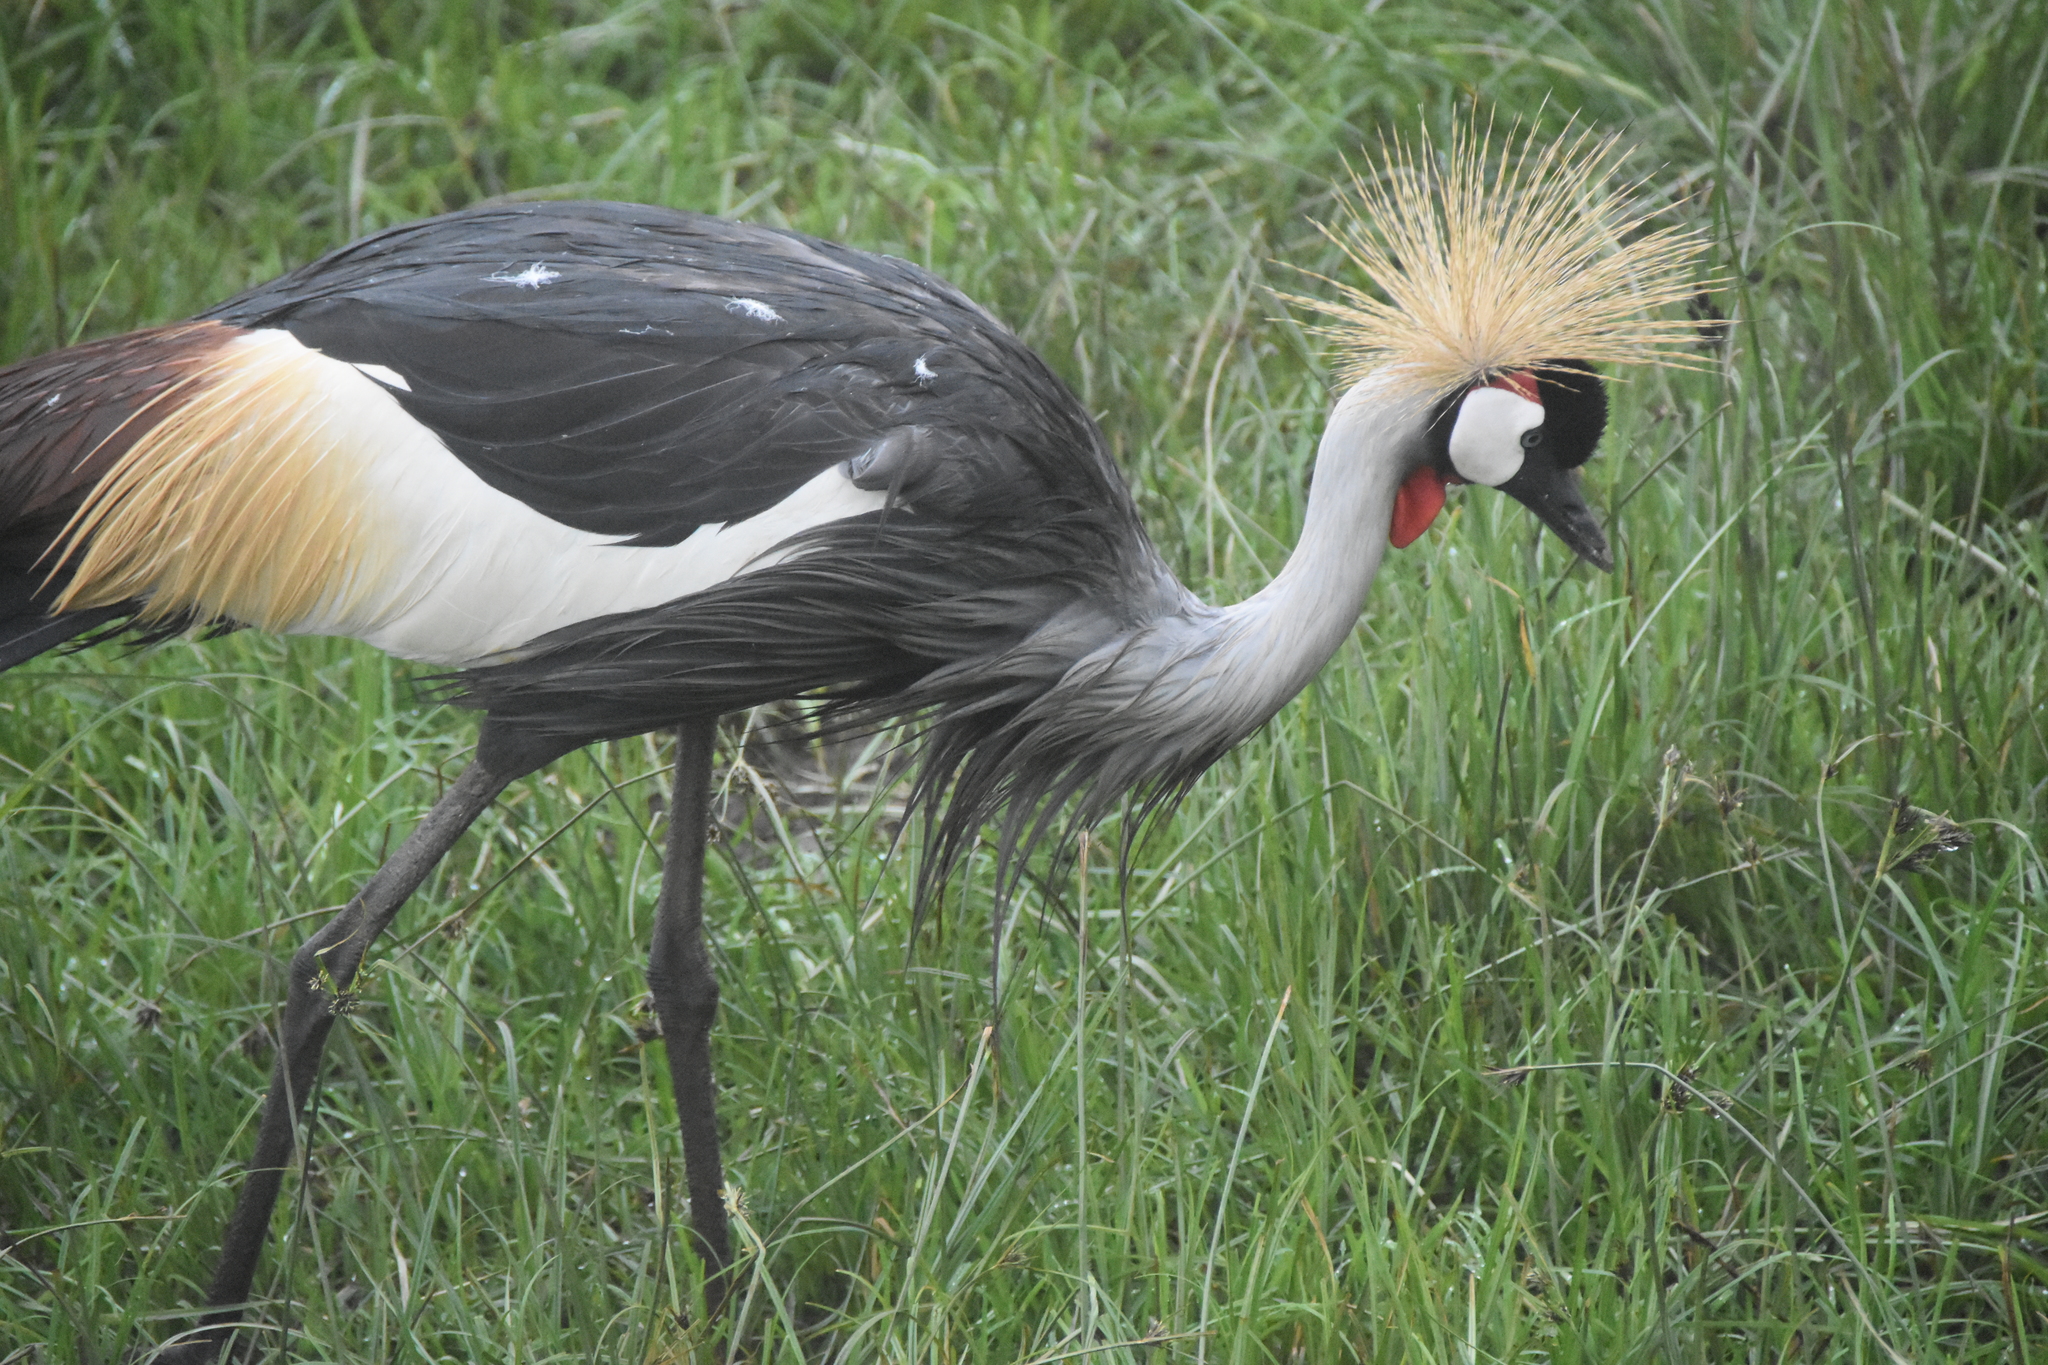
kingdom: Animalia
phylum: Chordata
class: Aves
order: Gruiformes
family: Gruidae
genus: Balearica
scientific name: Balearica regulorum
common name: Grey crowned crane
